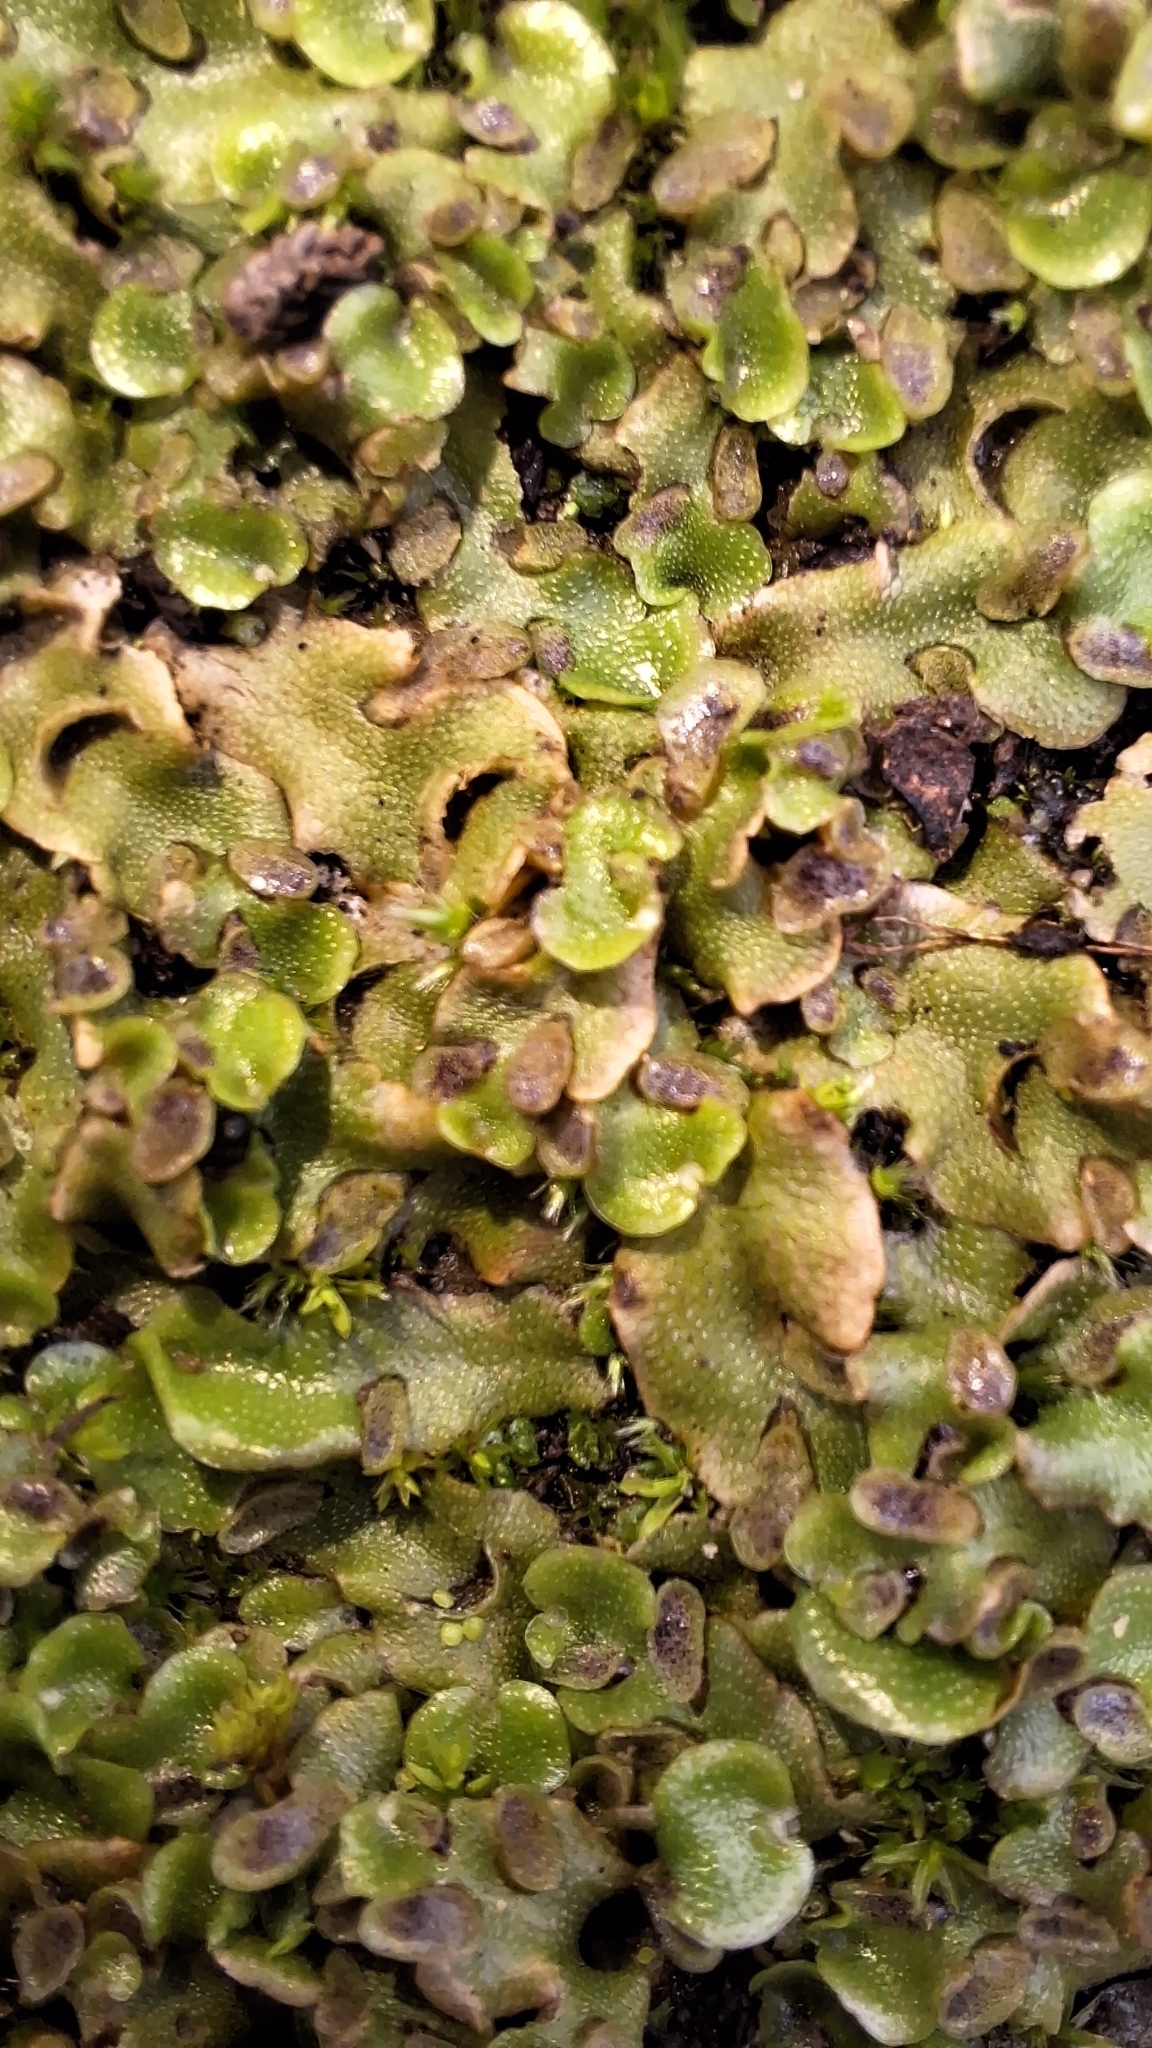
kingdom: Plantae
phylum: Marchantiophyta
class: Marchantiopsida
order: Lunulariales
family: Lunulariaceae
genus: Lunularia
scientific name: Lunularia cruciata
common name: Crescent-cup liverwort
